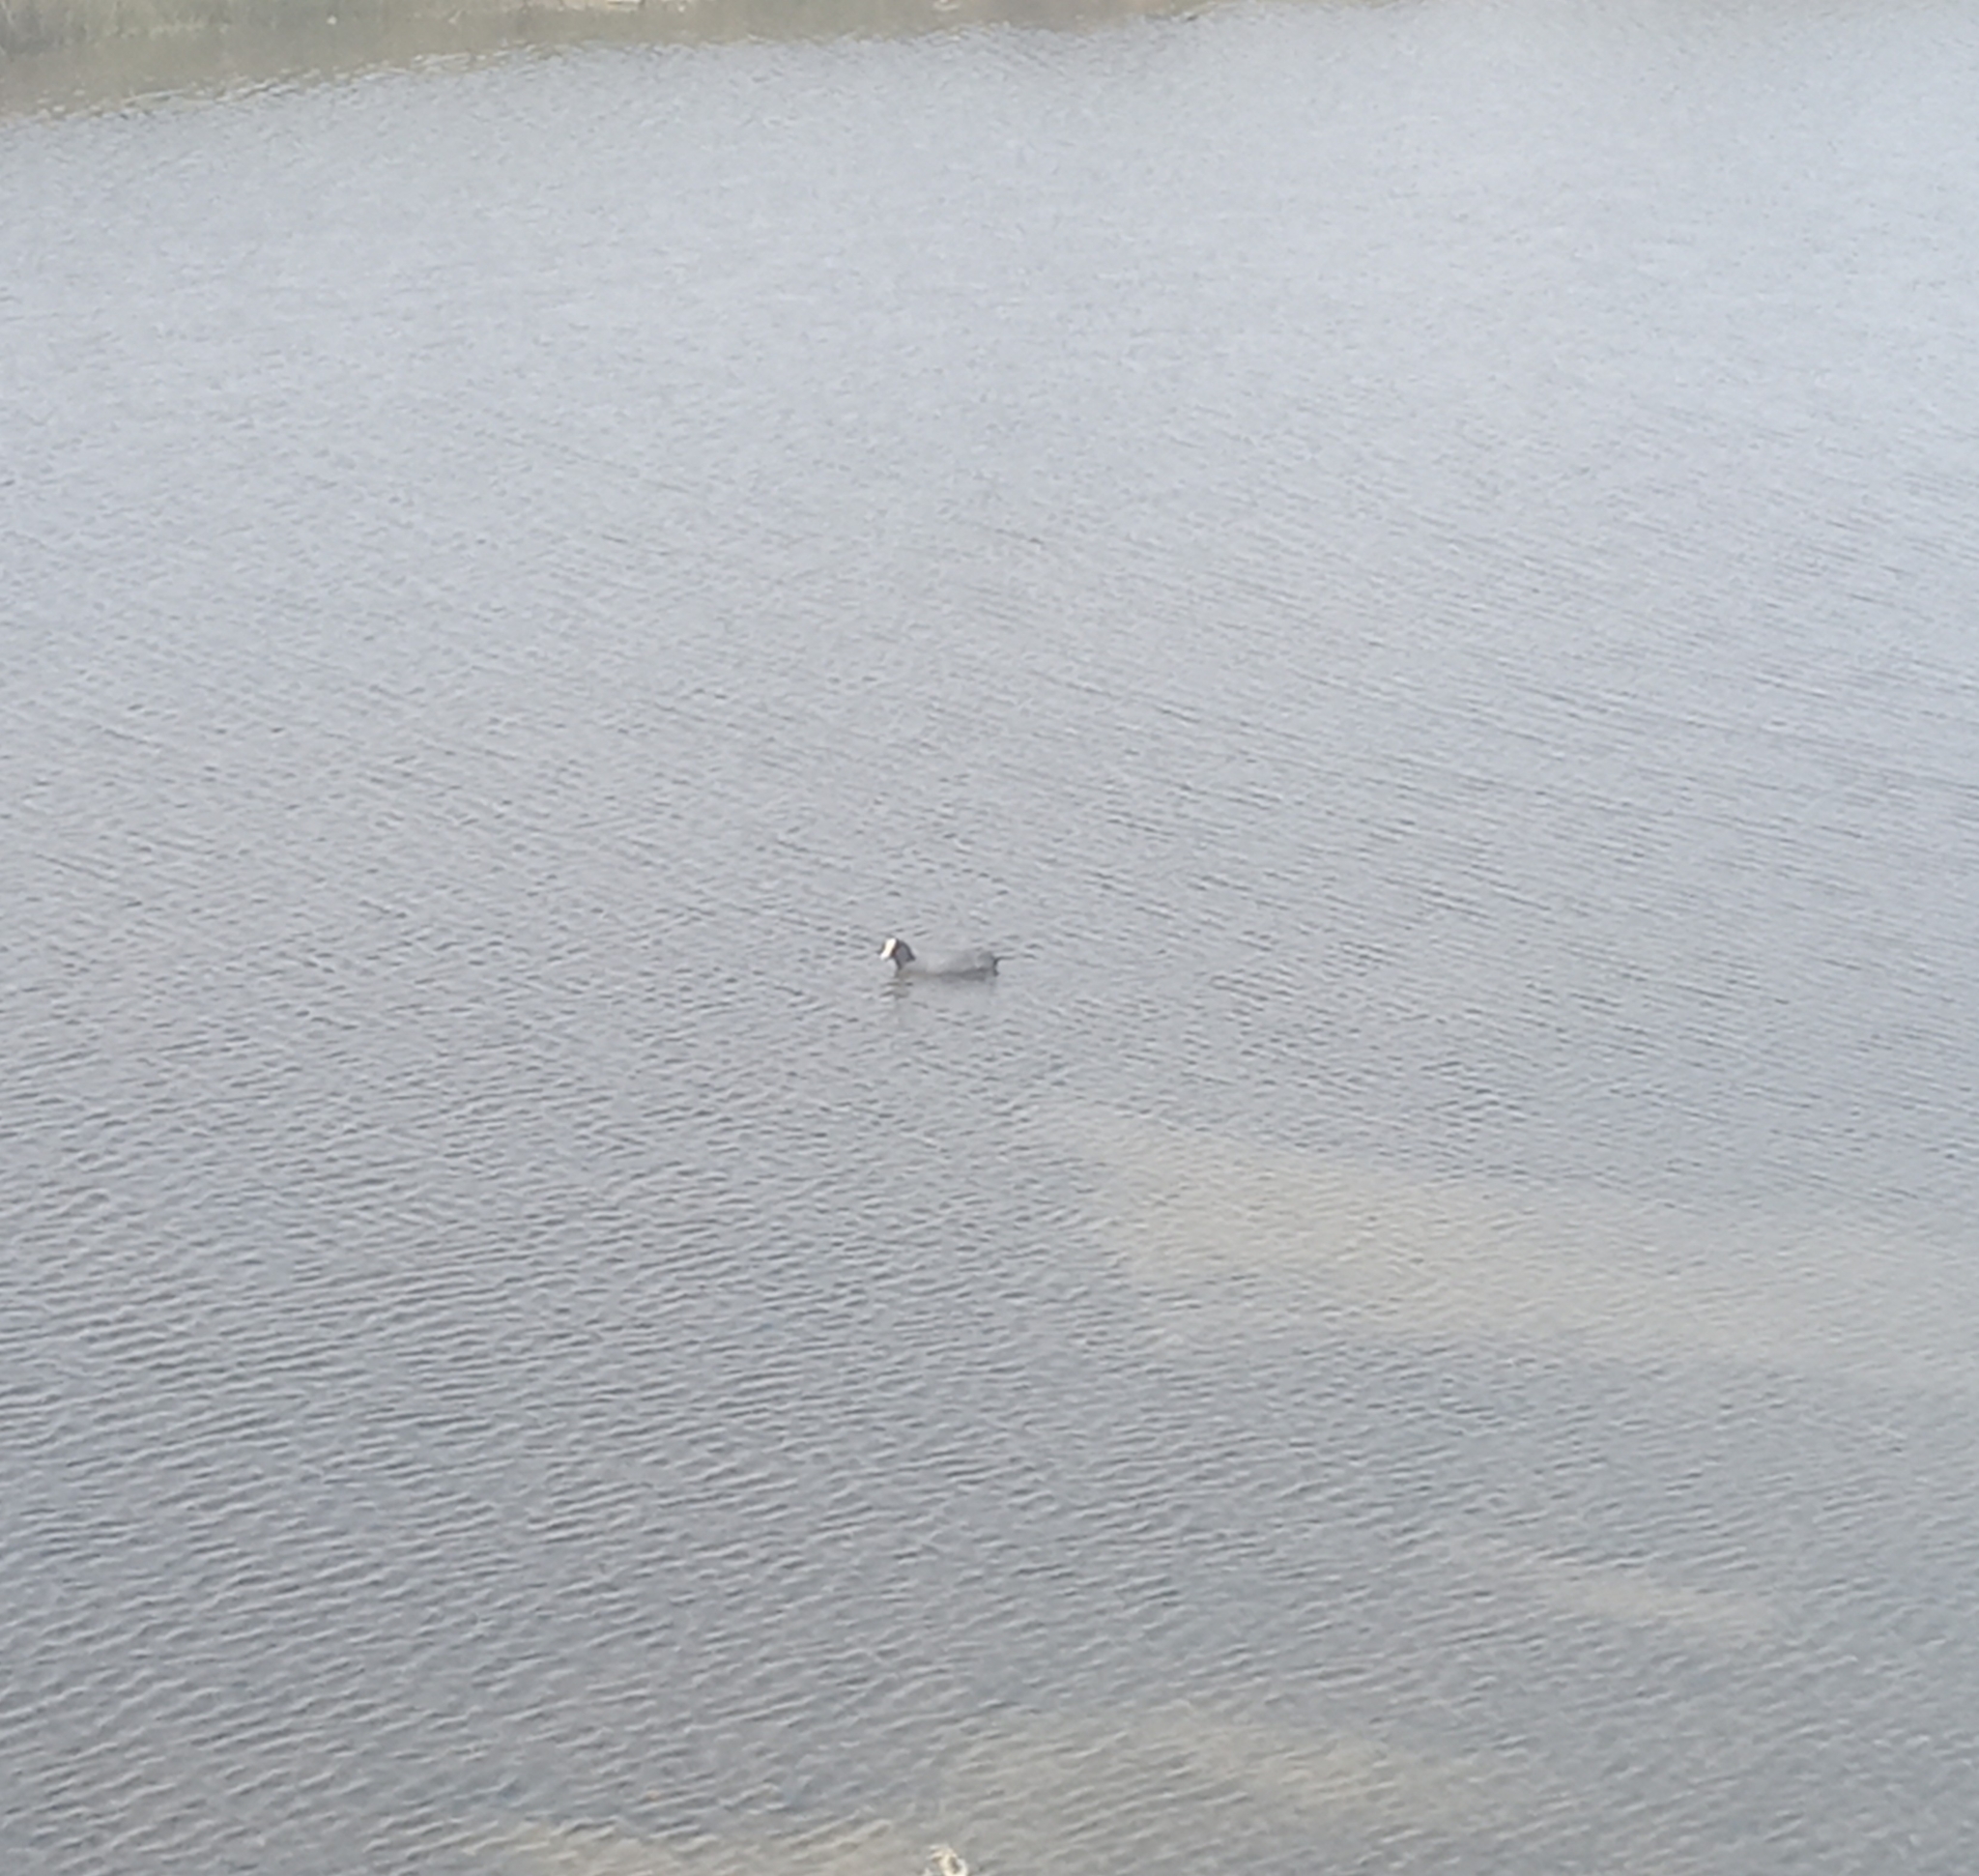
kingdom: Animalia
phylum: Chordata
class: Aves
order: Gruiformes
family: Rallidae
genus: Fulica
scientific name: Fulica ardesiaca
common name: Andean coot
